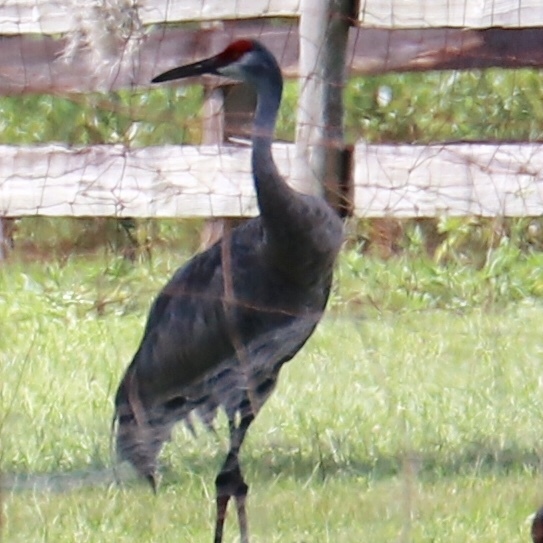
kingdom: Animalia
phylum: Chordata
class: Aves
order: Gruiformes
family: Gruidae
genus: Grus
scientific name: Grus canadensis
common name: Sandhill crane
